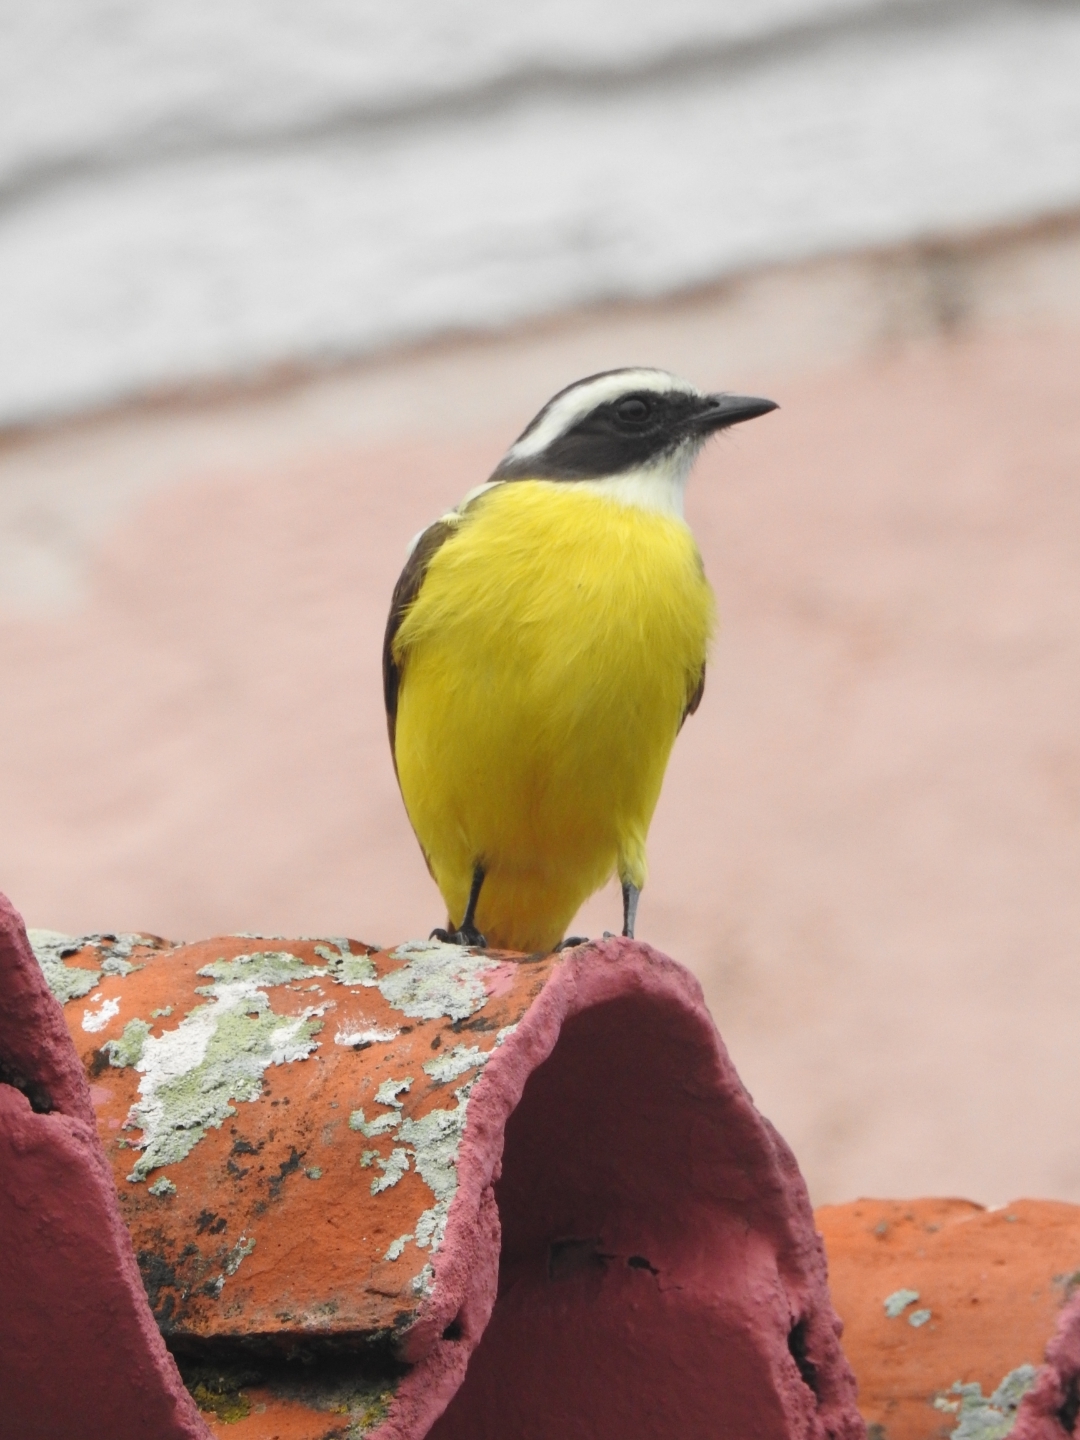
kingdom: Animalia
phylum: Chordata
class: Aves
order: Passeriformes
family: Tyrannidae
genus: Myiozetetes
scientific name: Myiozetetes similis
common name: Social flycatcher
